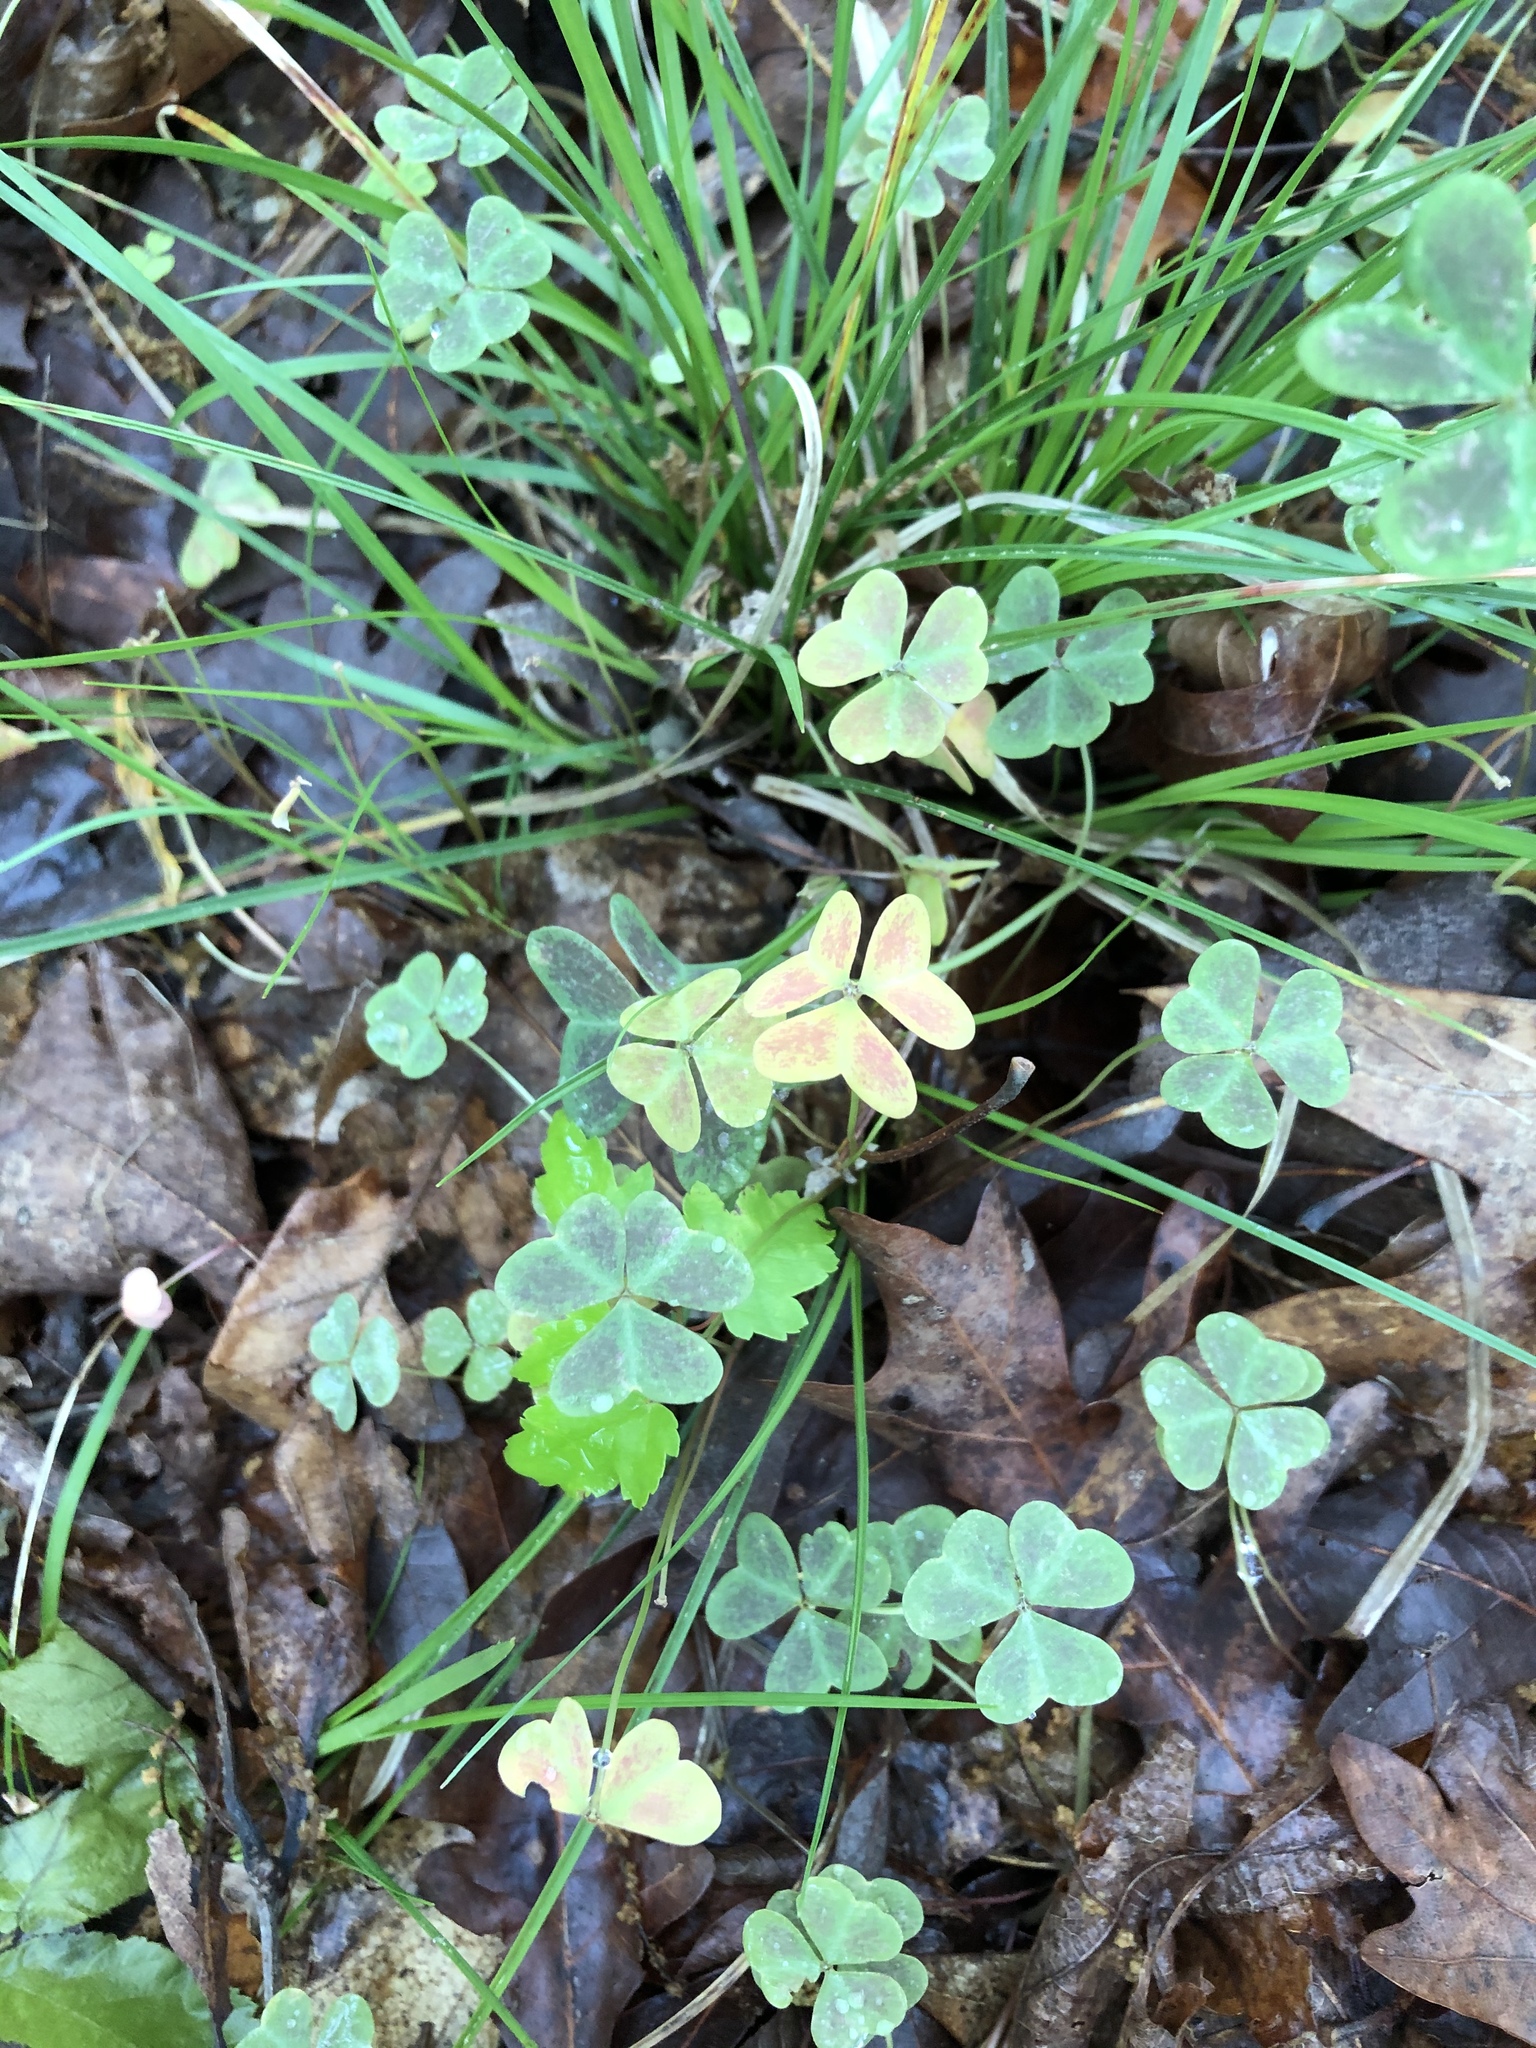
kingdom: Plantae
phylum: Tracheophyta
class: Magnoliopsida
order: Oxalidales
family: Oxalidaceae
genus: Oxalis
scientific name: Oxalis violacea
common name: Violet wood-sorrel
